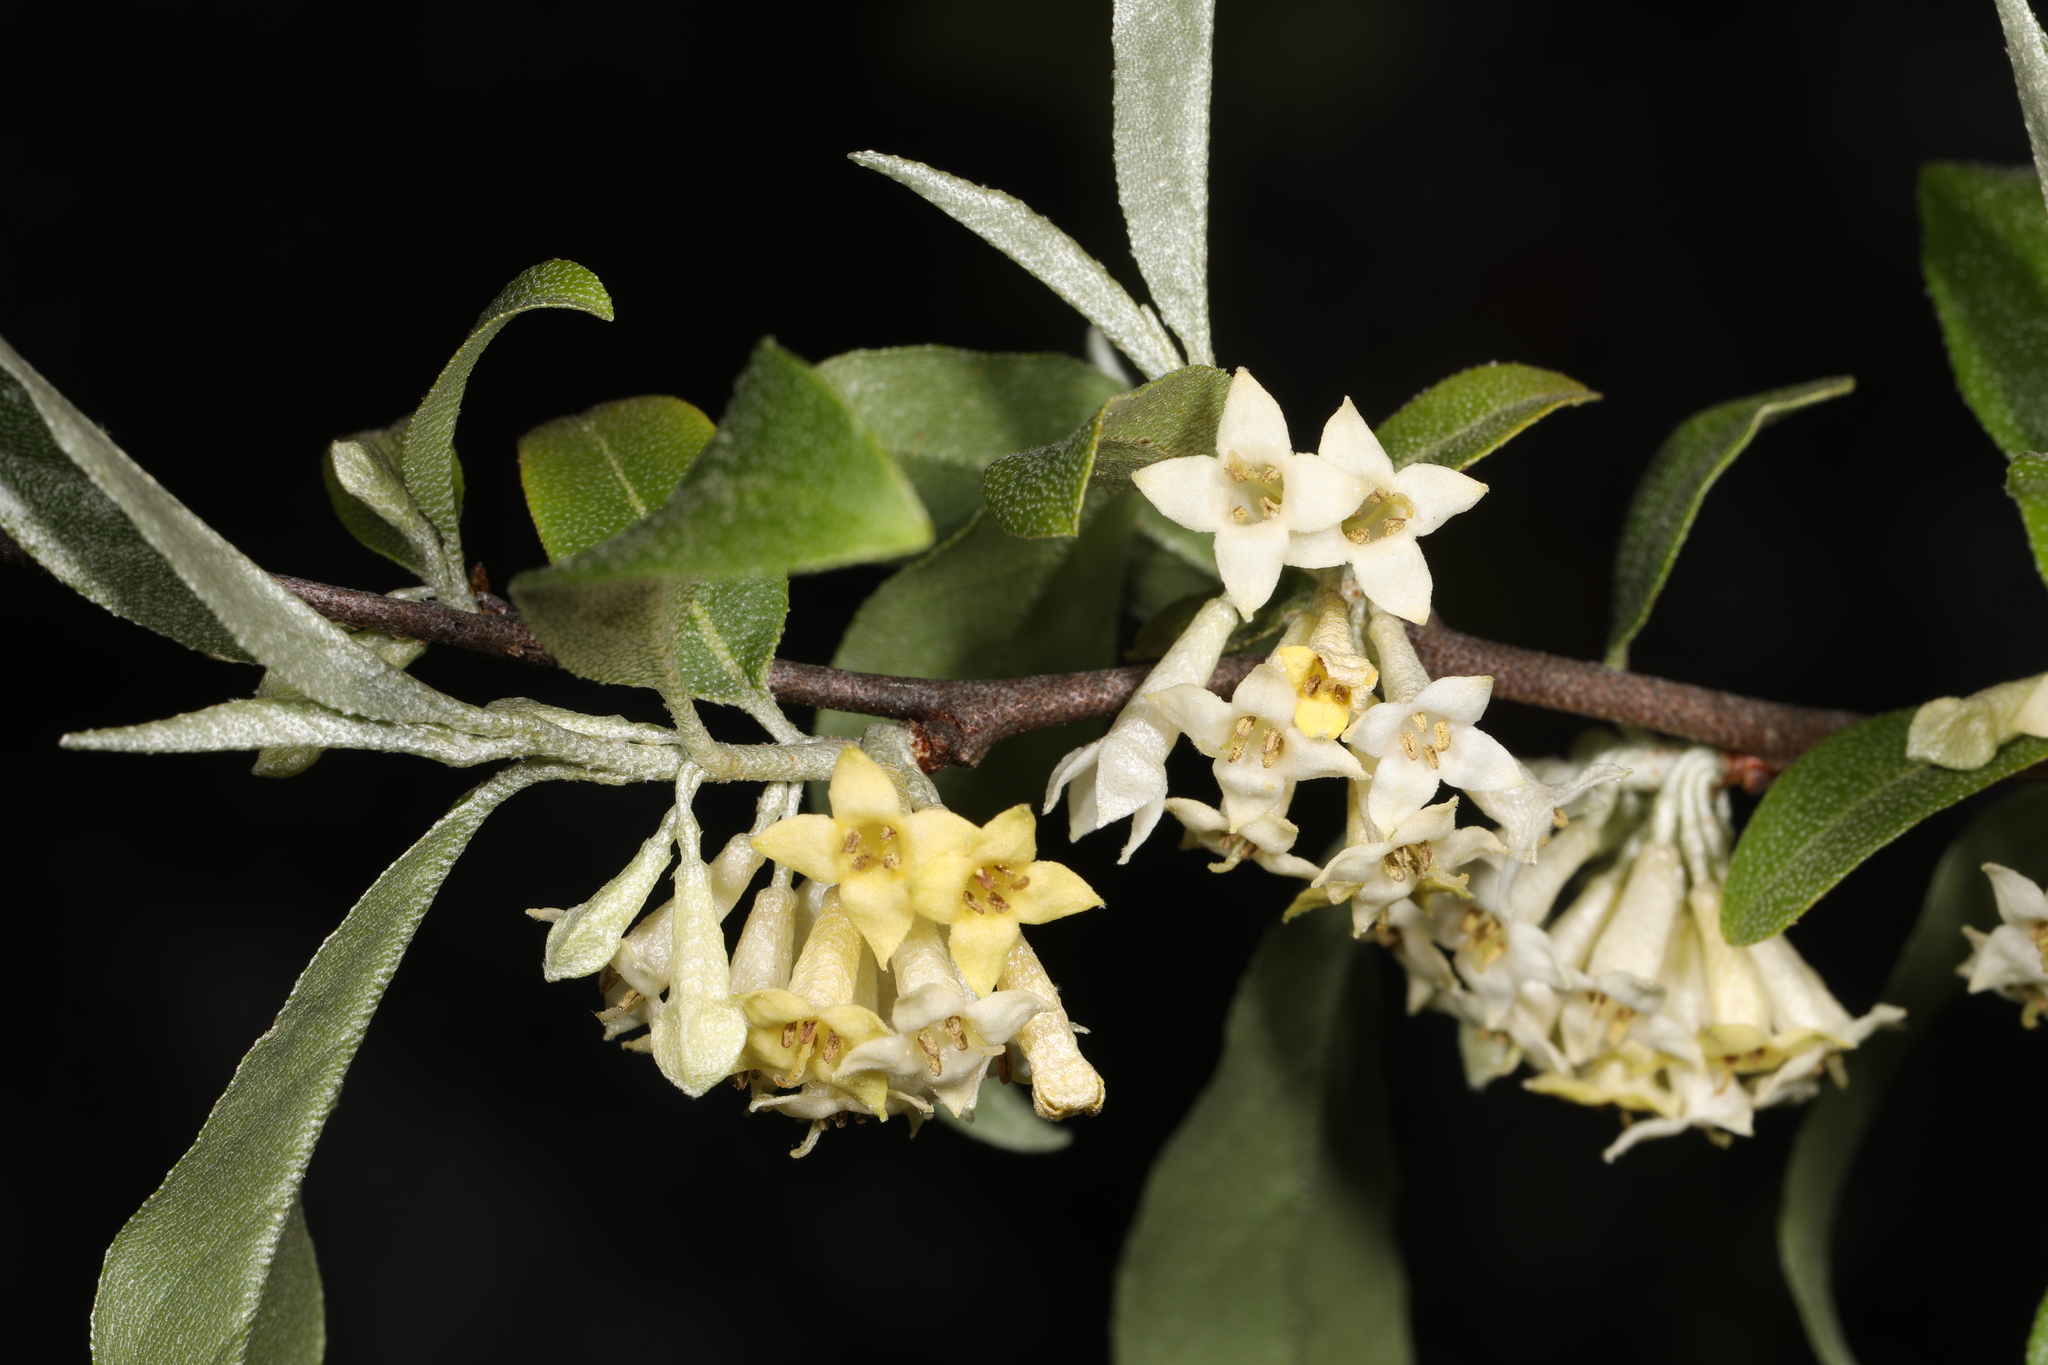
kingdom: Plantae
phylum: Tracheophyta
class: Magnoliopsida
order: Rosales
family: Elaeagnaceae
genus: Elaeagnus
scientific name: Elaeagnus umbellata
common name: Autumn olive
